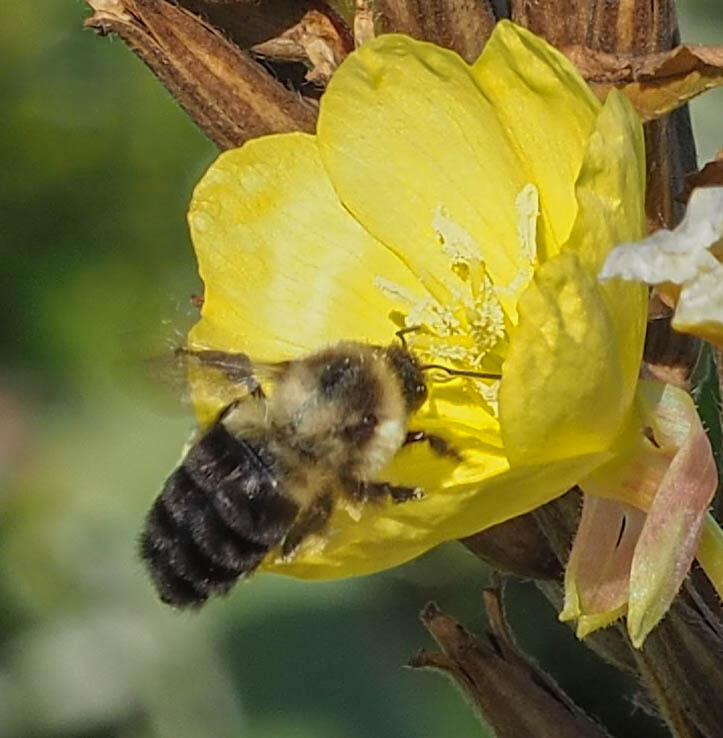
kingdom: Animalia
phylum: Arthropoda
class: Insecta
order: Hymenoptera
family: Apidae
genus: Bombus
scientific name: Bombus impatiens
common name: Common eastern bumble bee
